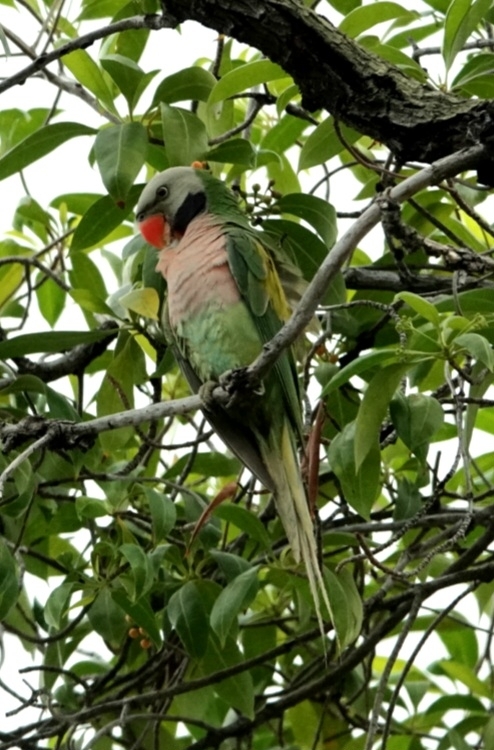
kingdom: Animalia
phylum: Chordata
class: Aves
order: Psittaciformes
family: Psittacidae
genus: Psittacula
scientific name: Psittacula alexandri
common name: Red-breasted parakeet
